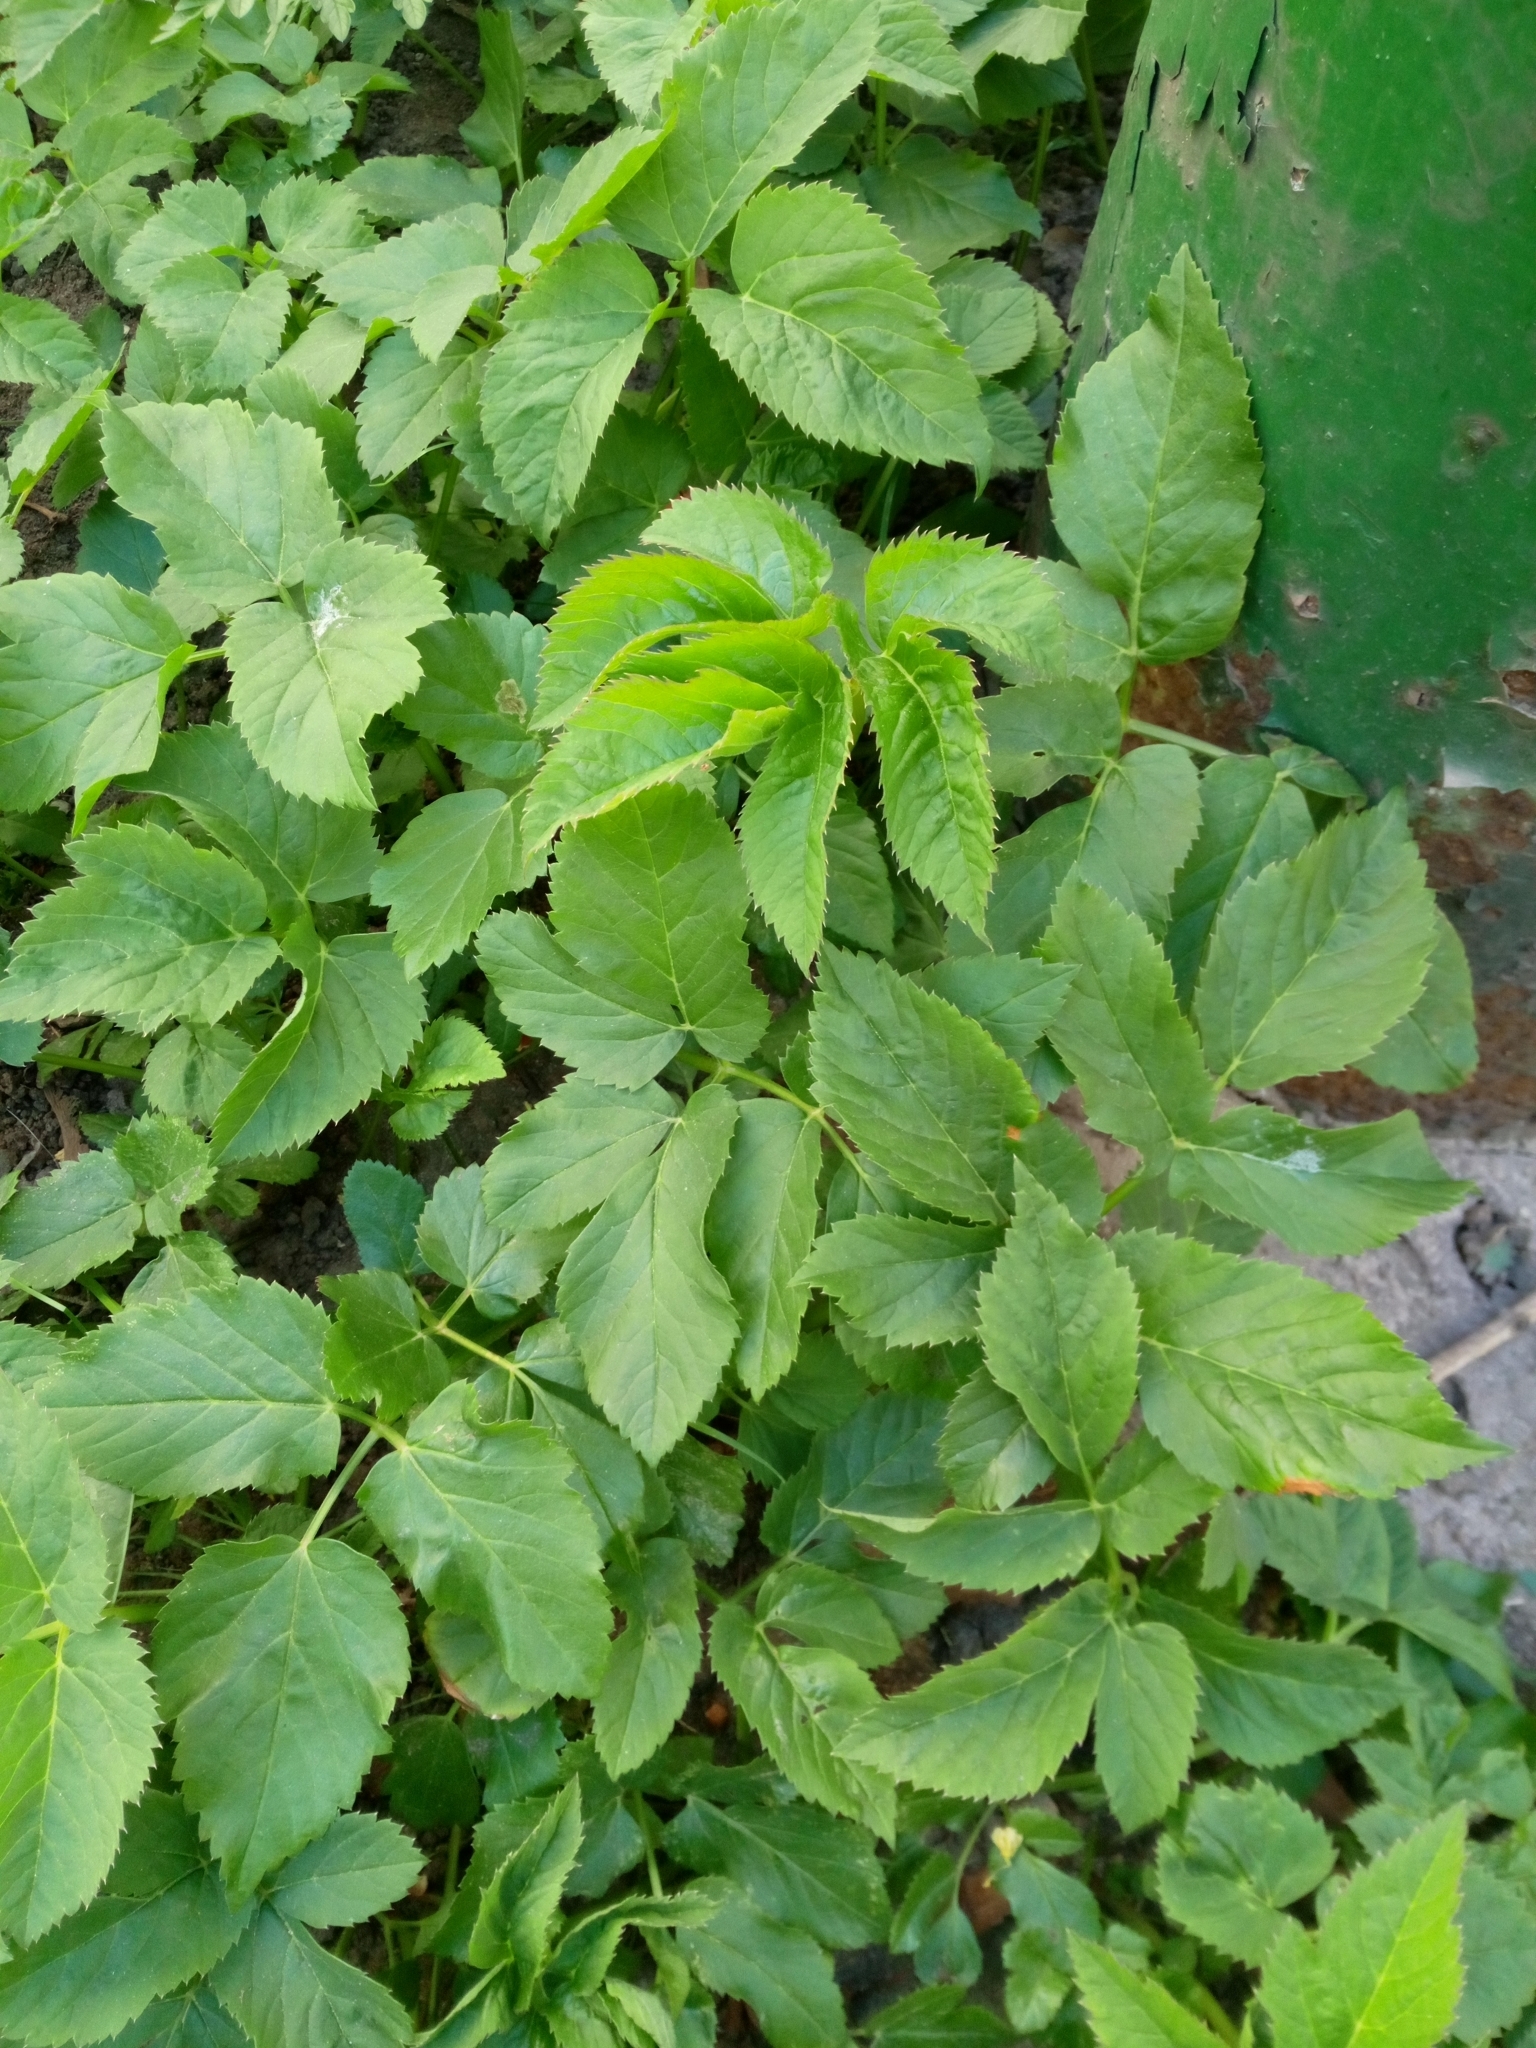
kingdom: Plantae
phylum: Tracheophyta
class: Magnoliopsida
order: Apiales
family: Apiaceae
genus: Aegopodium
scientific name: Aegopodium podagraria
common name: Ground-elder
